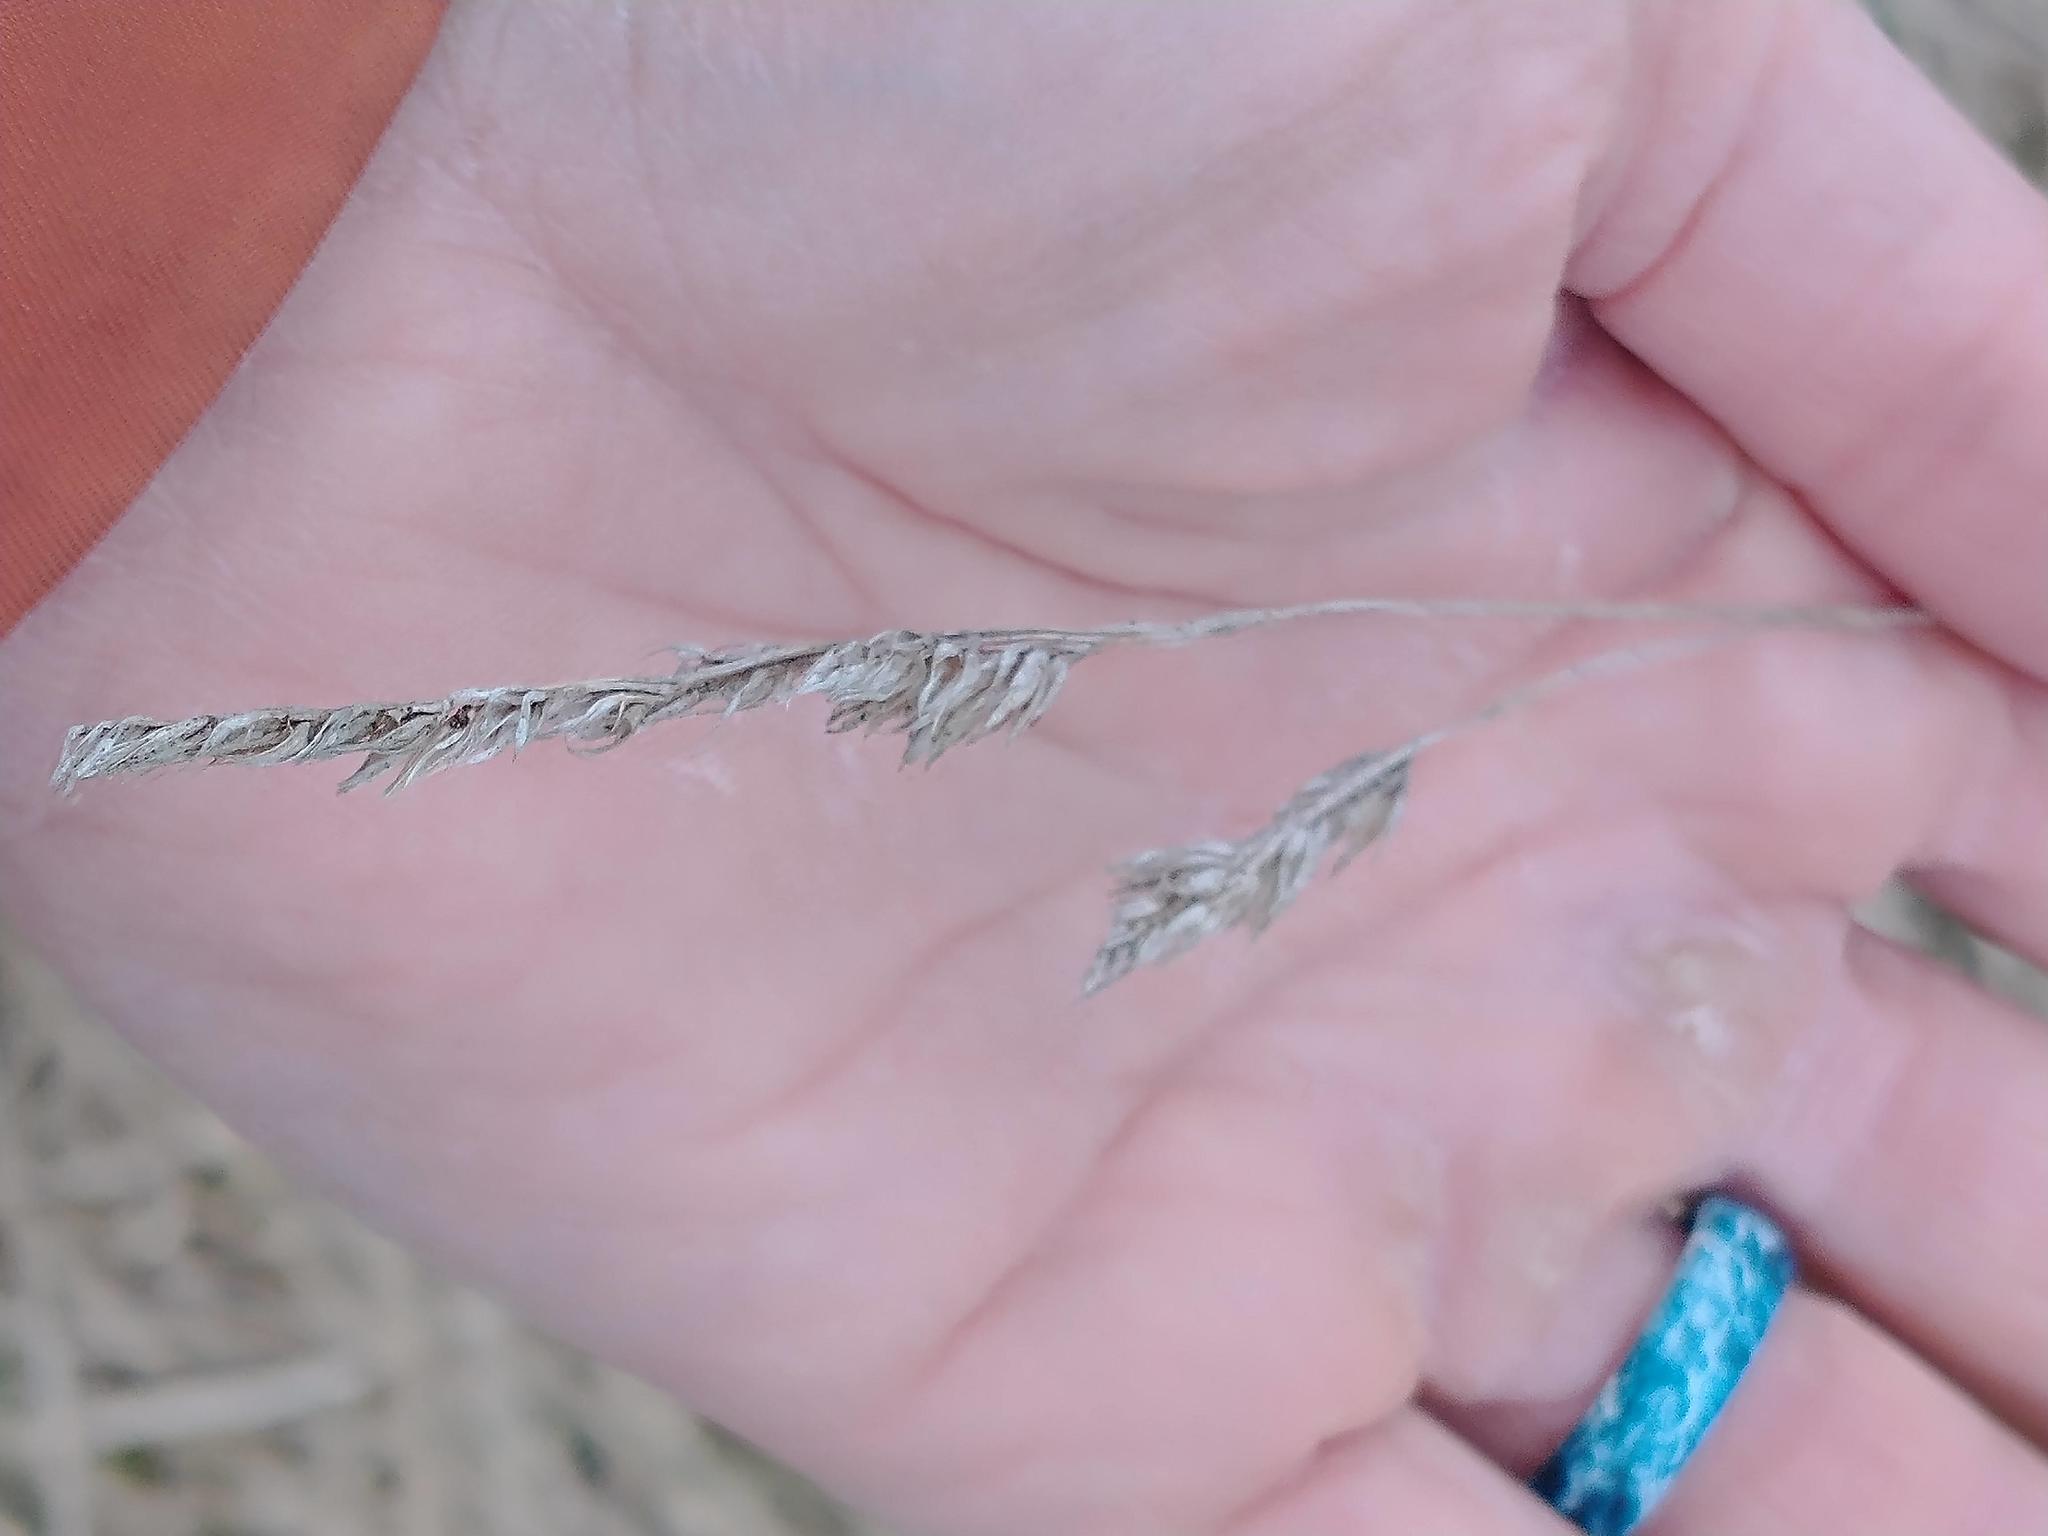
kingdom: Plantae
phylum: Tracheophyta
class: Liliopsida
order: Poales
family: Poaceae
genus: Dactylis
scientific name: Dactylis glomerata
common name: Orchardgrass
